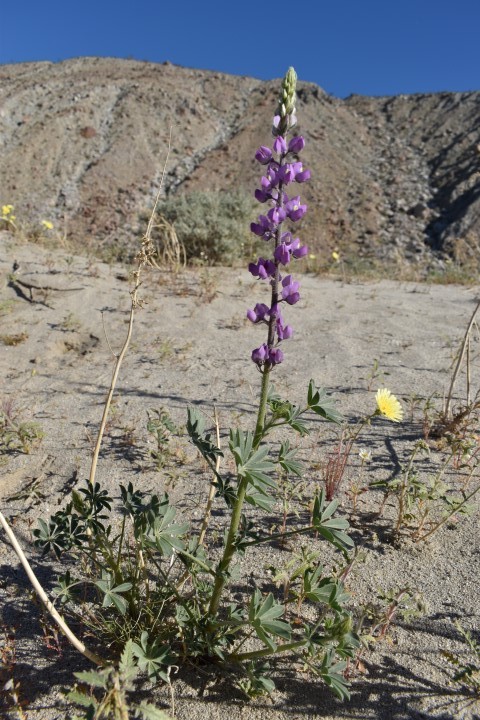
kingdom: Plantae
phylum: Tracheophyta
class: Magnoliopsida
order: Fabales
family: Fabaceae
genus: Lupinus
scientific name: Lupinus arizonicus
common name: Arizona lupine
